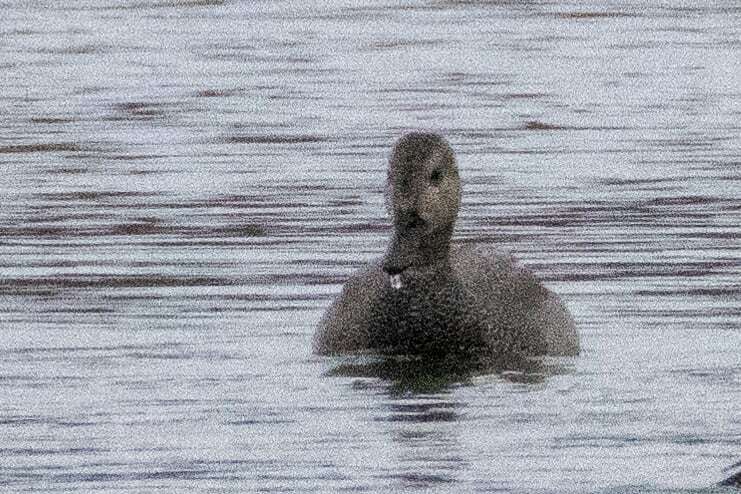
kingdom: Animalia
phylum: Chordata
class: Aves
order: Anseriformes
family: Anatidae
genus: Mareca
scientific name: Mareca strepera
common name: Gadwall
